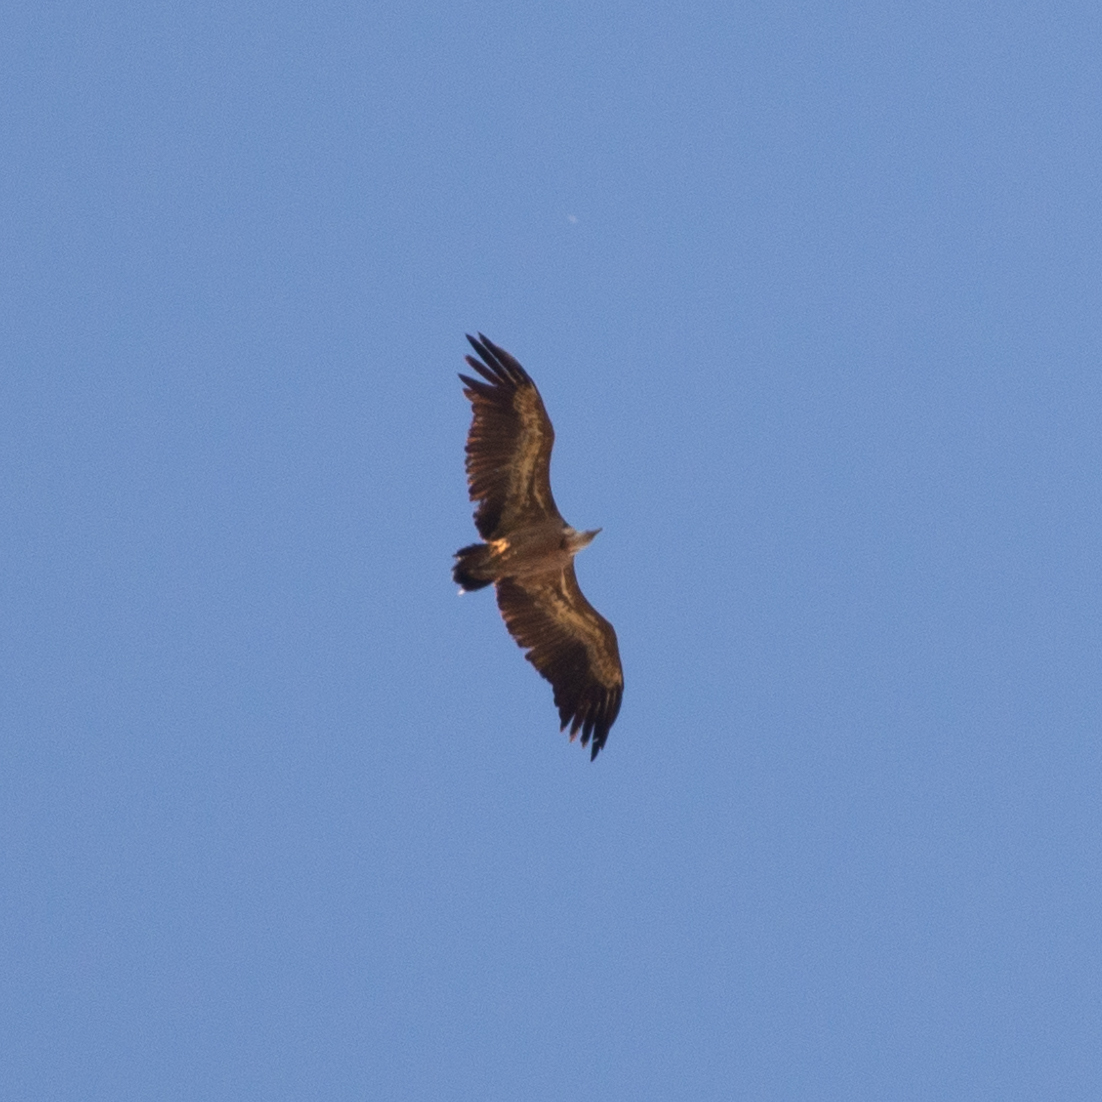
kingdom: Animalia
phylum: Chordata
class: Aves
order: Accipitriformes
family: Accipitridae
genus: Gyps
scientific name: Gyps fulvus
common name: Griffon vulture
